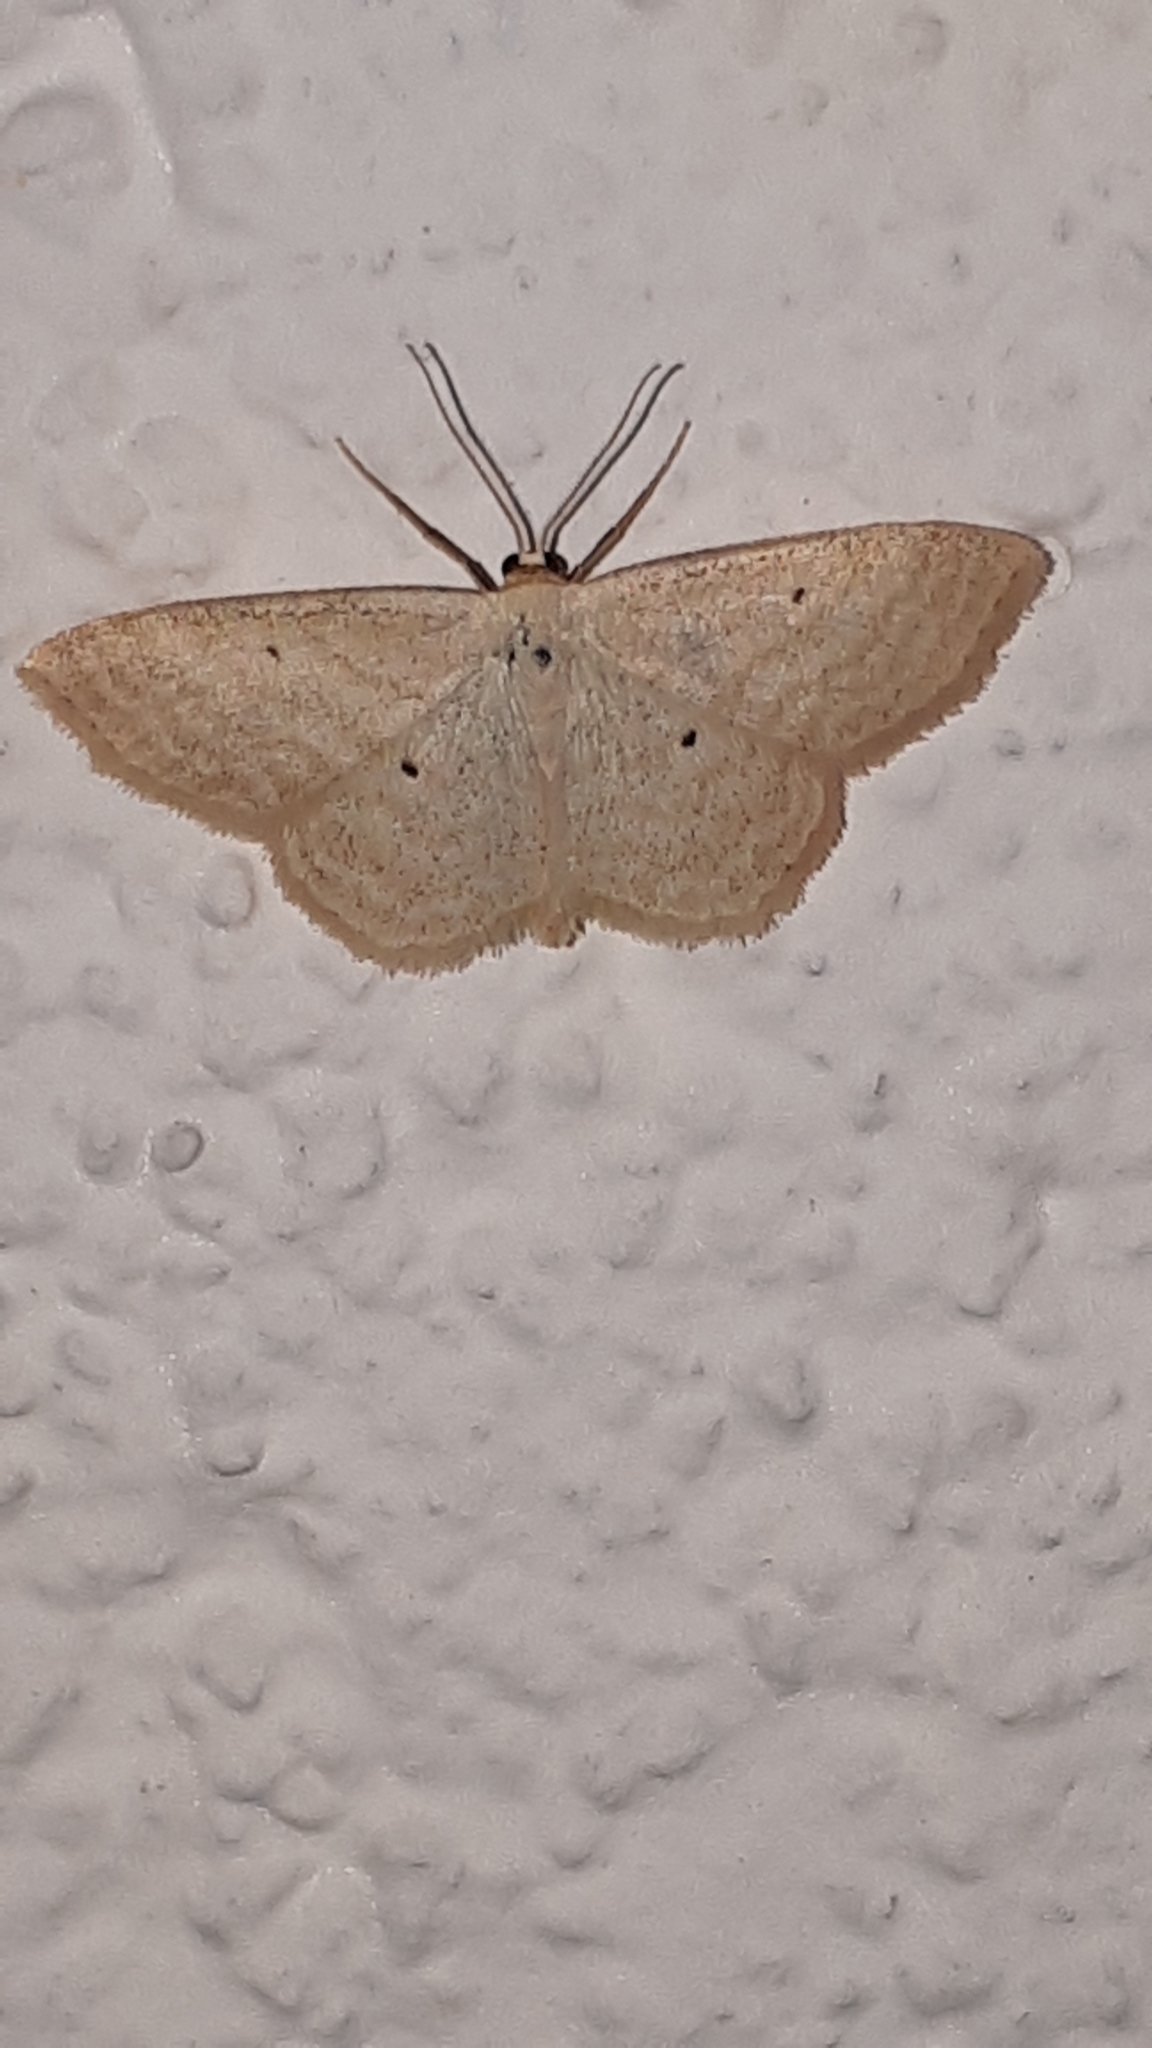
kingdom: Animalia
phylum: Arthropoda
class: Insecta
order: Lepidoptera
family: Geometridae
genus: Scopula
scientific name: Scopula immutata
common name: Lesser cream wave
